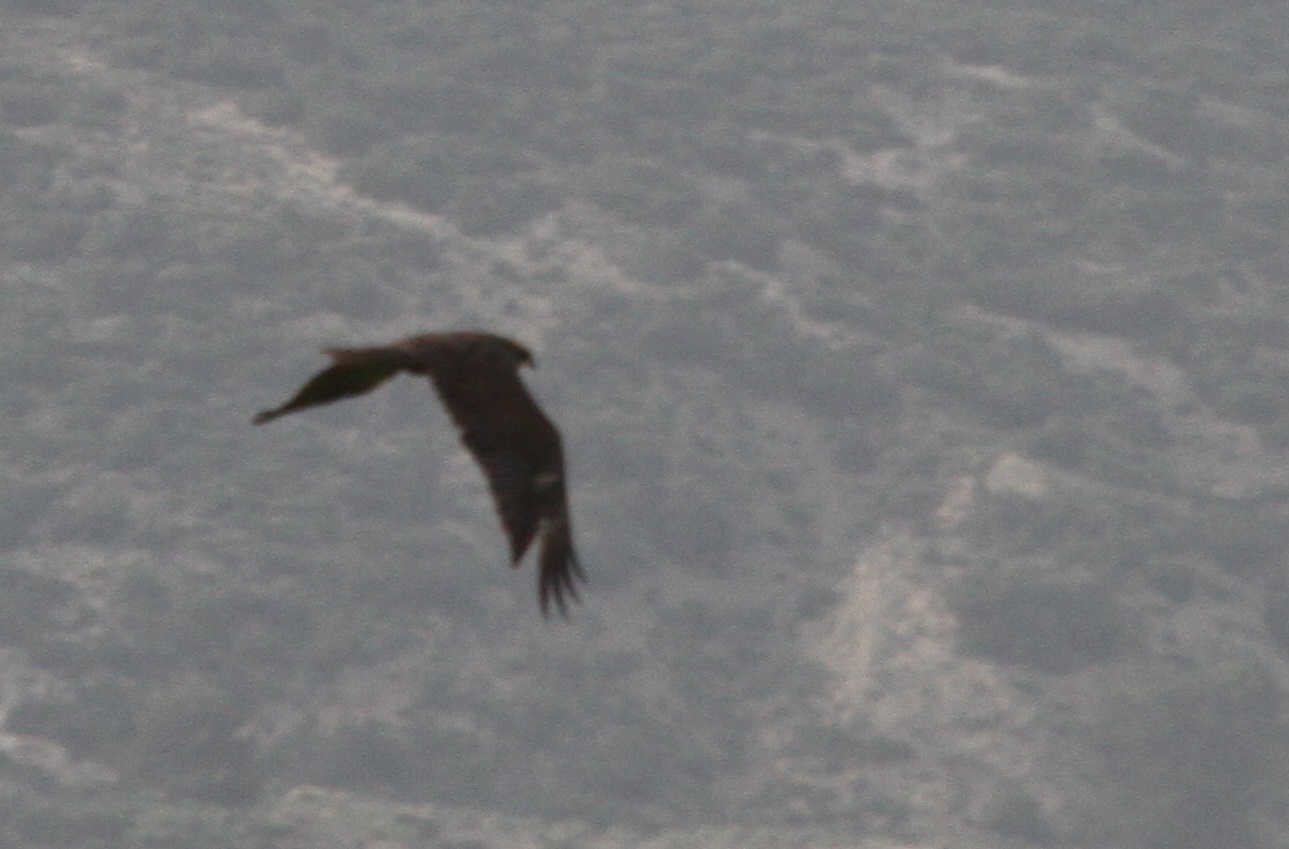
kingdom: Animalia
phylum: Chordata
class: Aves
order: Accipitriformes
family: Accipitridae
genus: Milvus
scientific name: Milvus migrans
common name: Black kite
